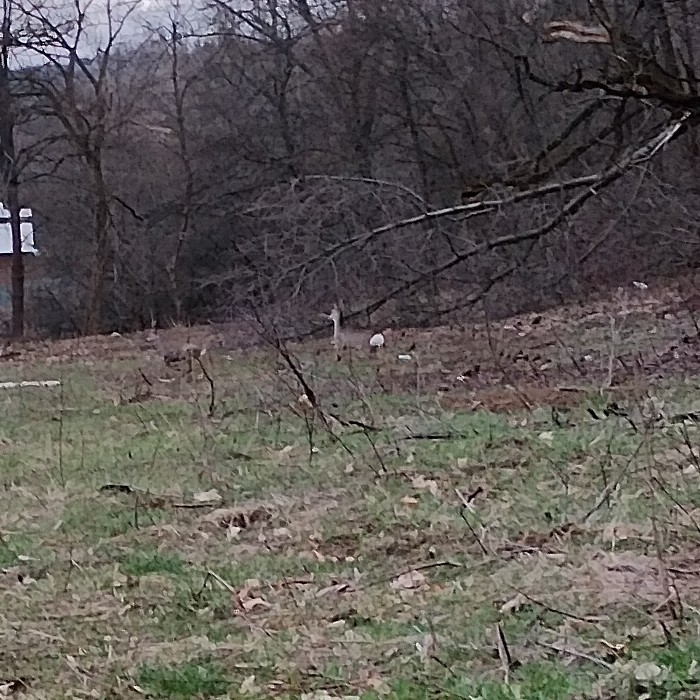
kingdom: Animalia
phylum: Chordata
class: Mammalia
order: Artiodactyla
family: Cervidae
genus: Capreolus
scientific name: Capreolus capreolus
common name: Western roe deer
